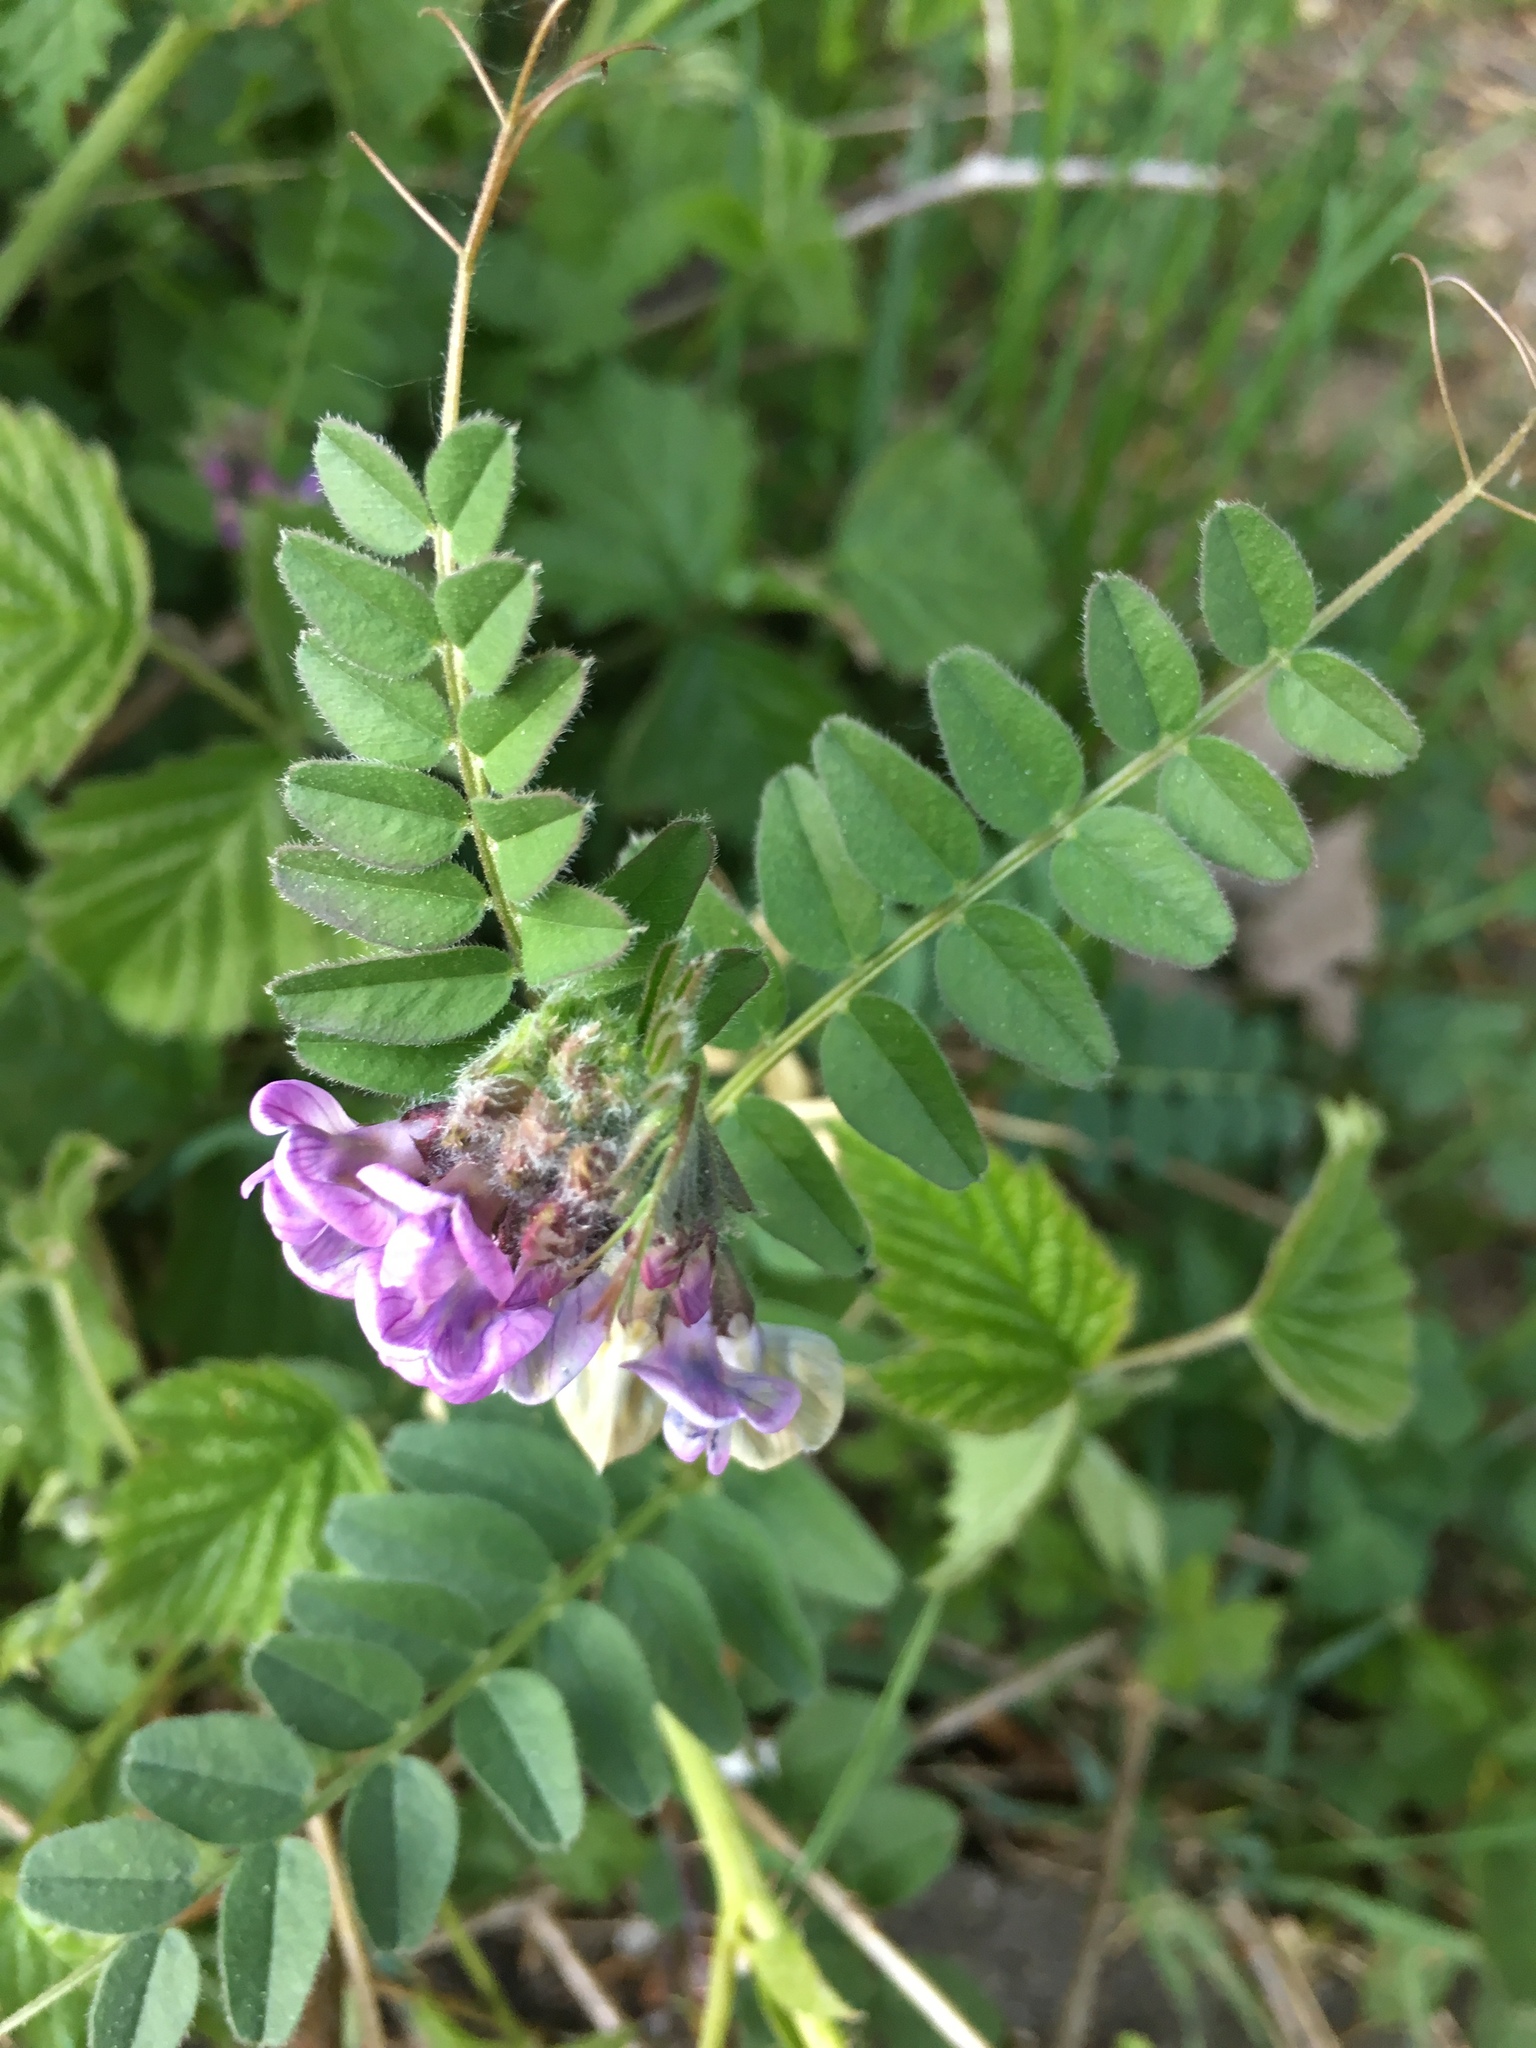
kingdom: Plantae
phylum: Tracheophyta
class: Magnoliopsida
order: Fabales
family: Fabaceae
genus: Vicia
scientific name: Vicia sepium
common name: Bush vetch
